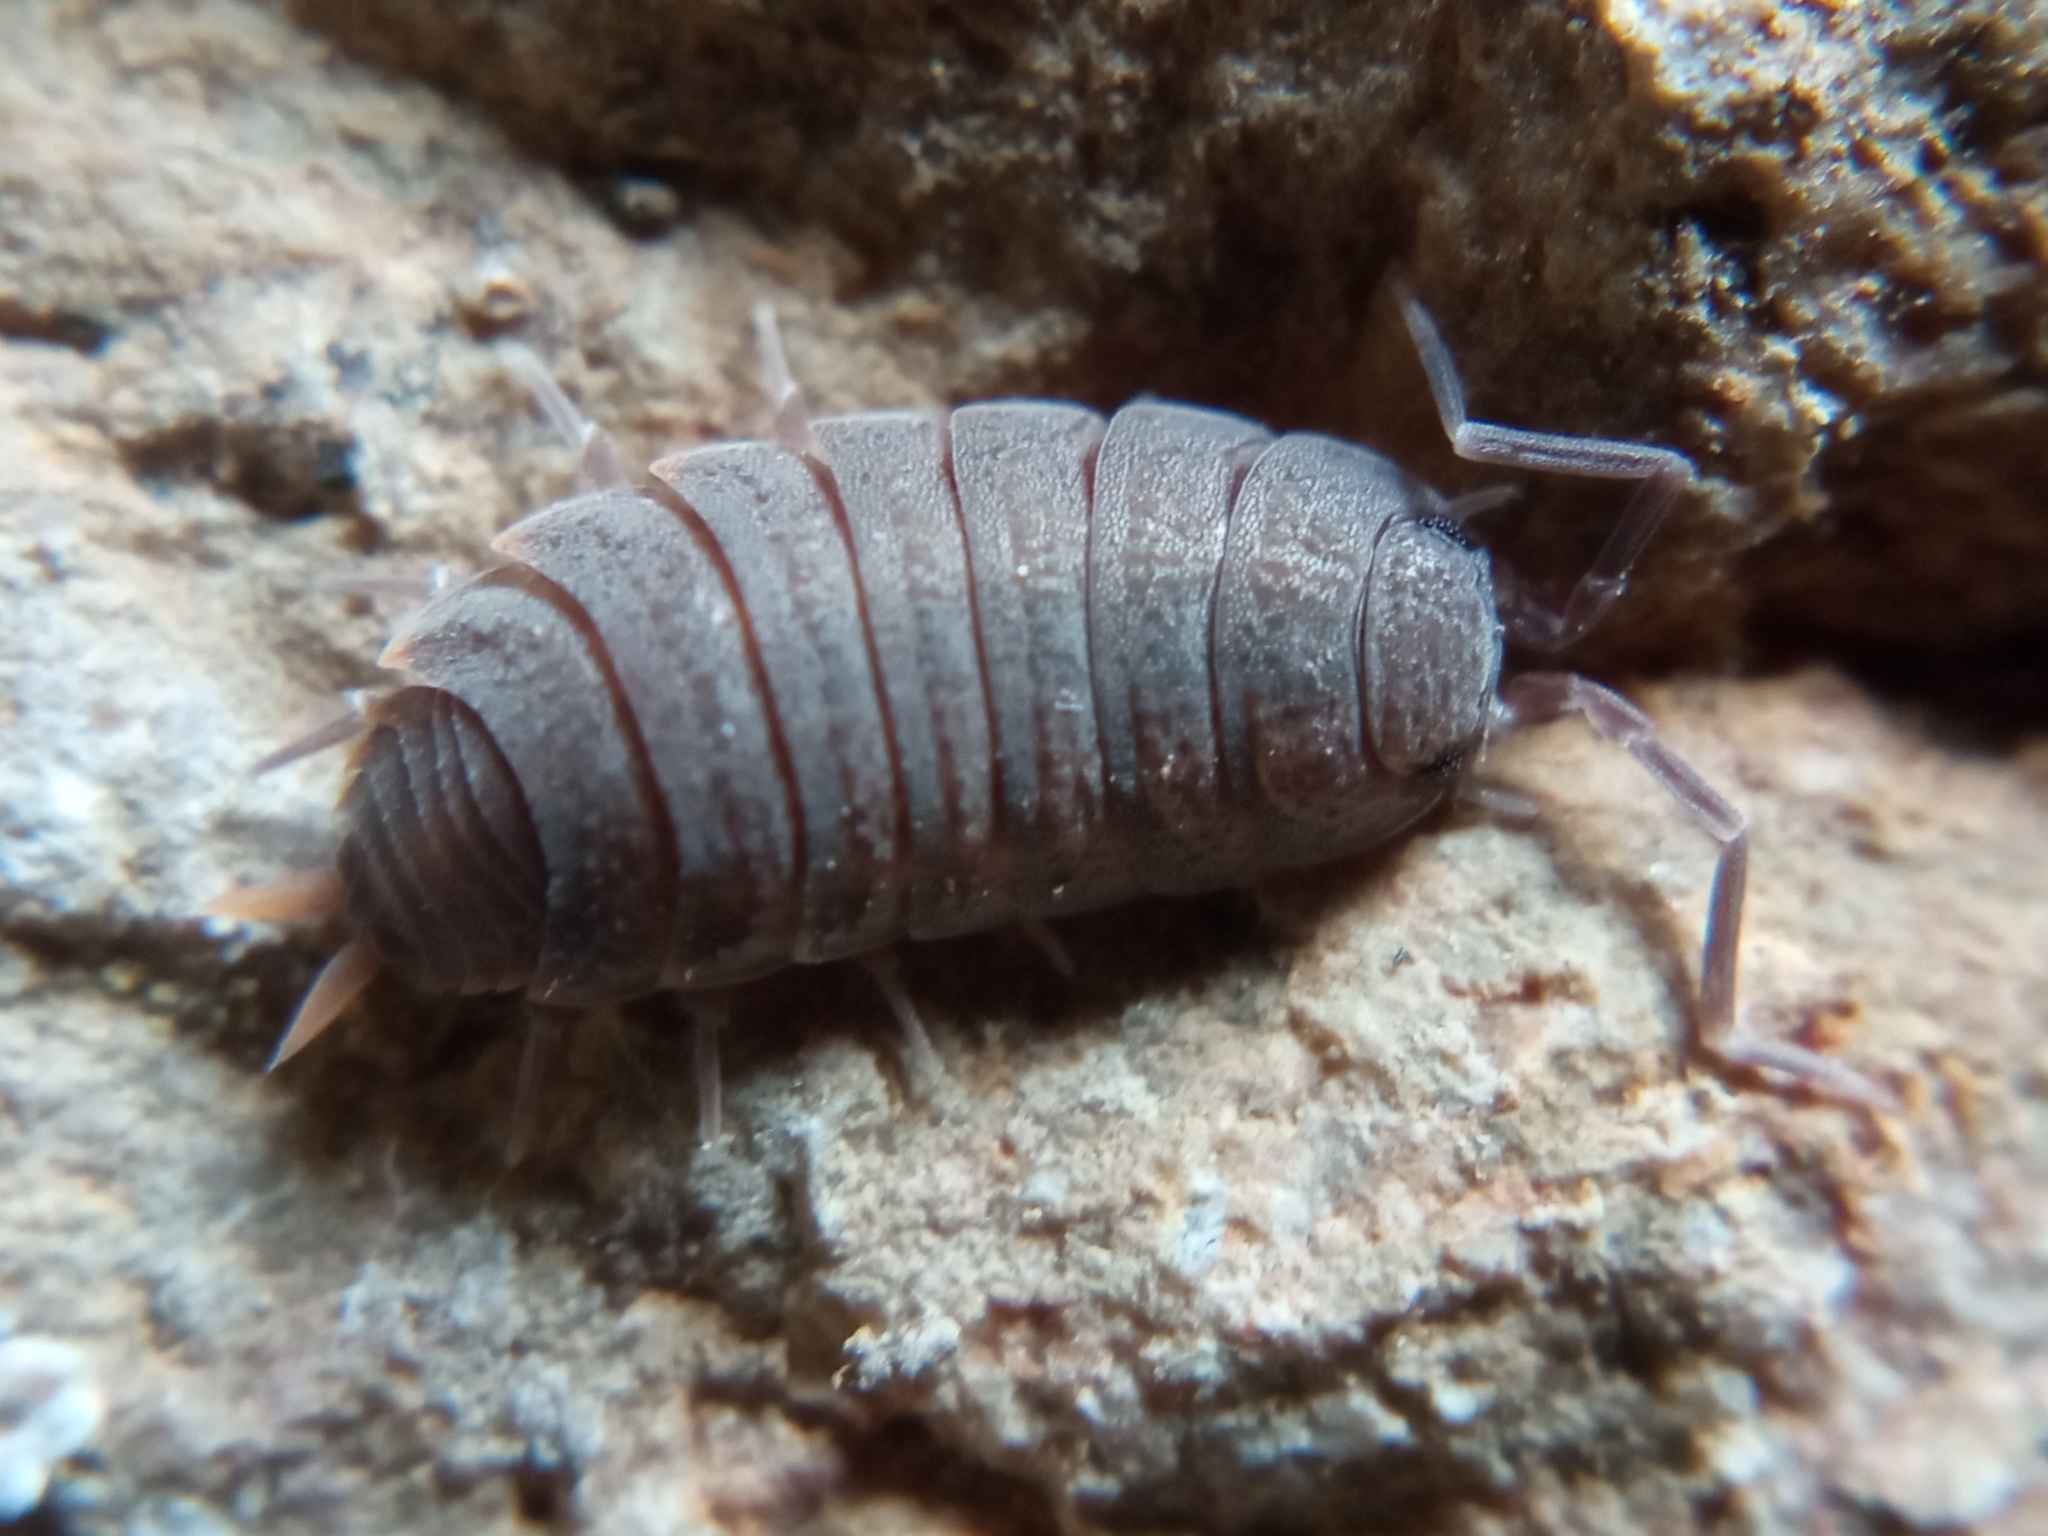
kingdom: Animalia
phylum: Arthropoda
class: Malacostraca
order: Isopoda
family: Porcellionidae
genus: Porcellionides
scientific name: Porcellionides pruinosus
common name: Plum woodlouse
